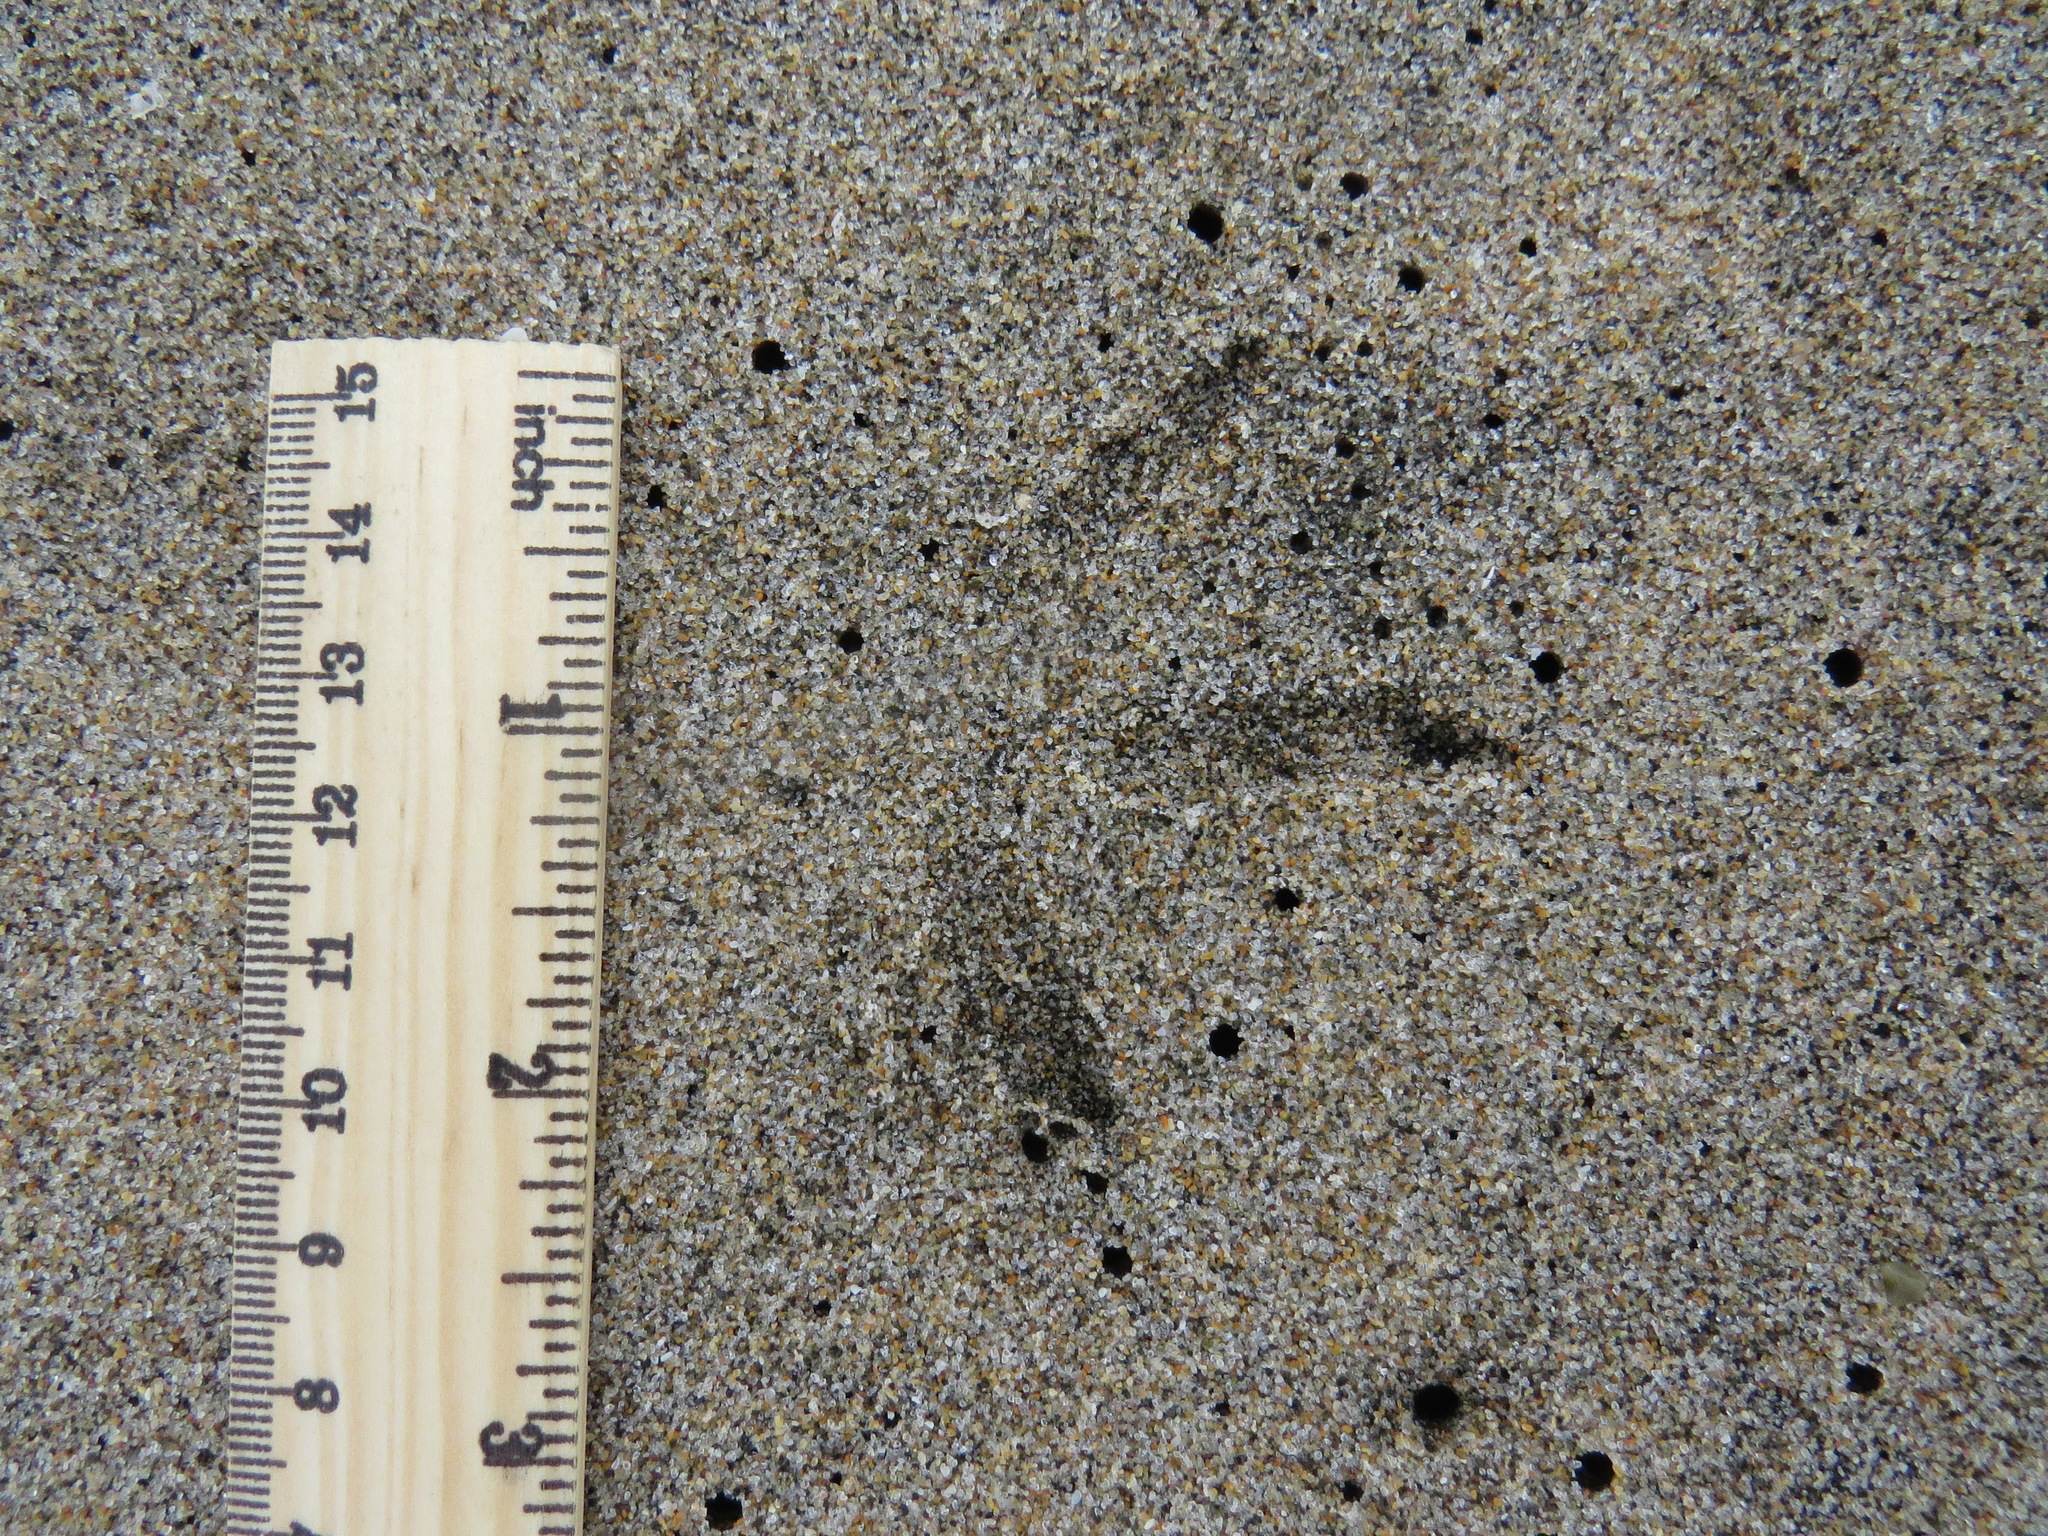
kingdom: Animalia
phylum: Chordata
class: Aves
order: Charadriiformes
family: Scolopacidae
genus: Numenius
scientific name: Numenius phaeopus
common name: Whimbrel
